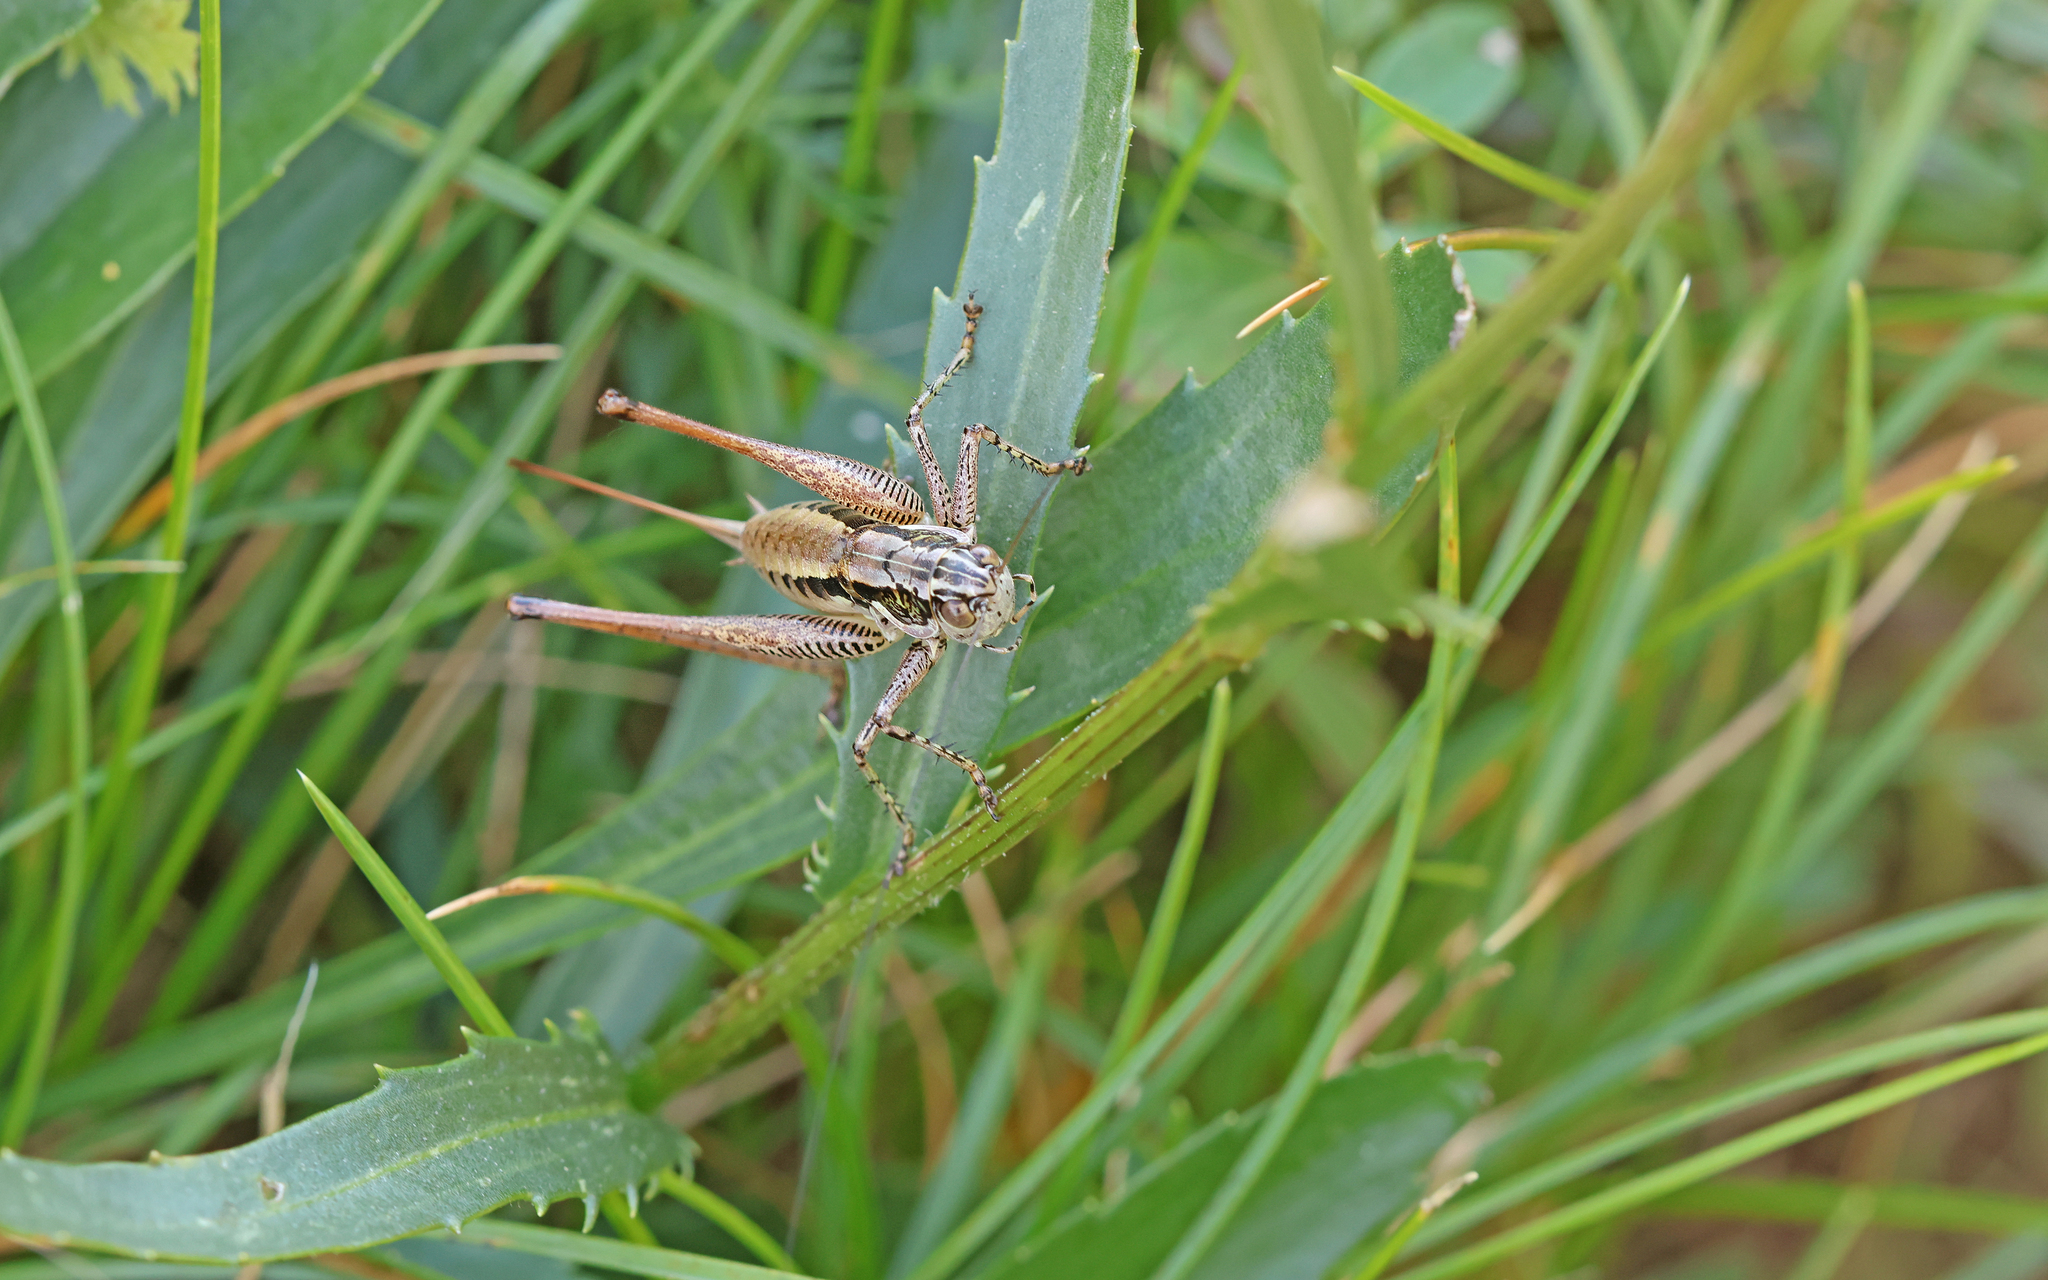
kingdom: Animalia
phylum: Arthropoda
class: Insecta
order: Orthoptera
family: Tettigoniidae
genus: Pachytrachis
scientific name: Pachytrachis striolatus
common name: Striated bush-cricket
